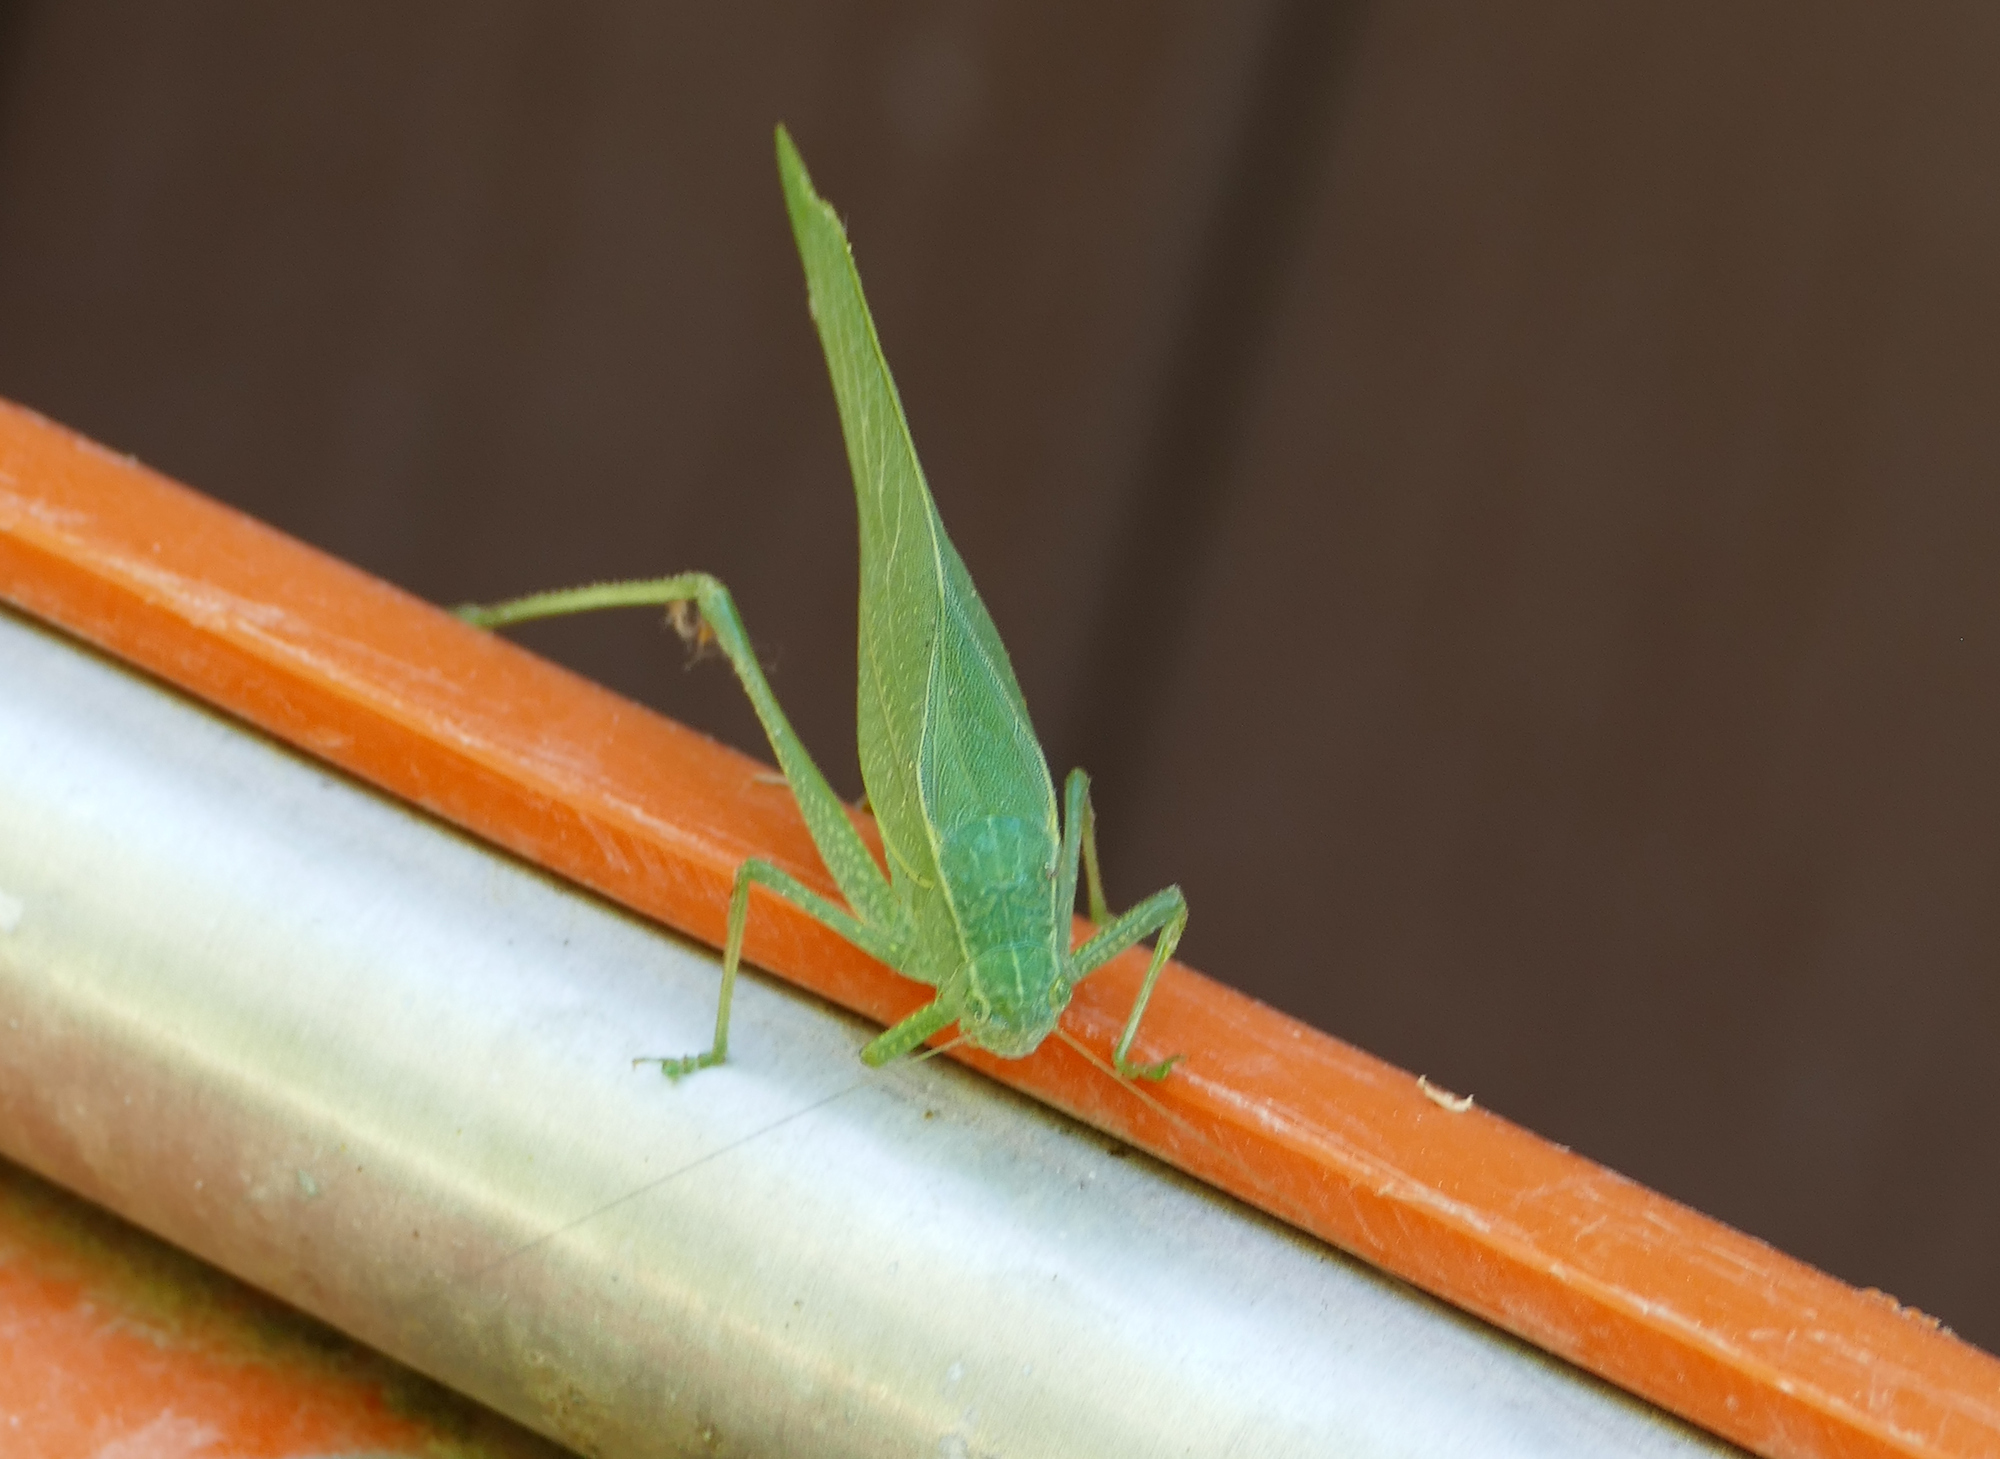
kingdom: Animalia
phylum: Arthropoda
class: Insecta
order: Orthoptera
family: Tettigoniidae
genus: Microcentrum
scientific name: Microcentrum rhombifolium
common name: Broad-winged katydid
